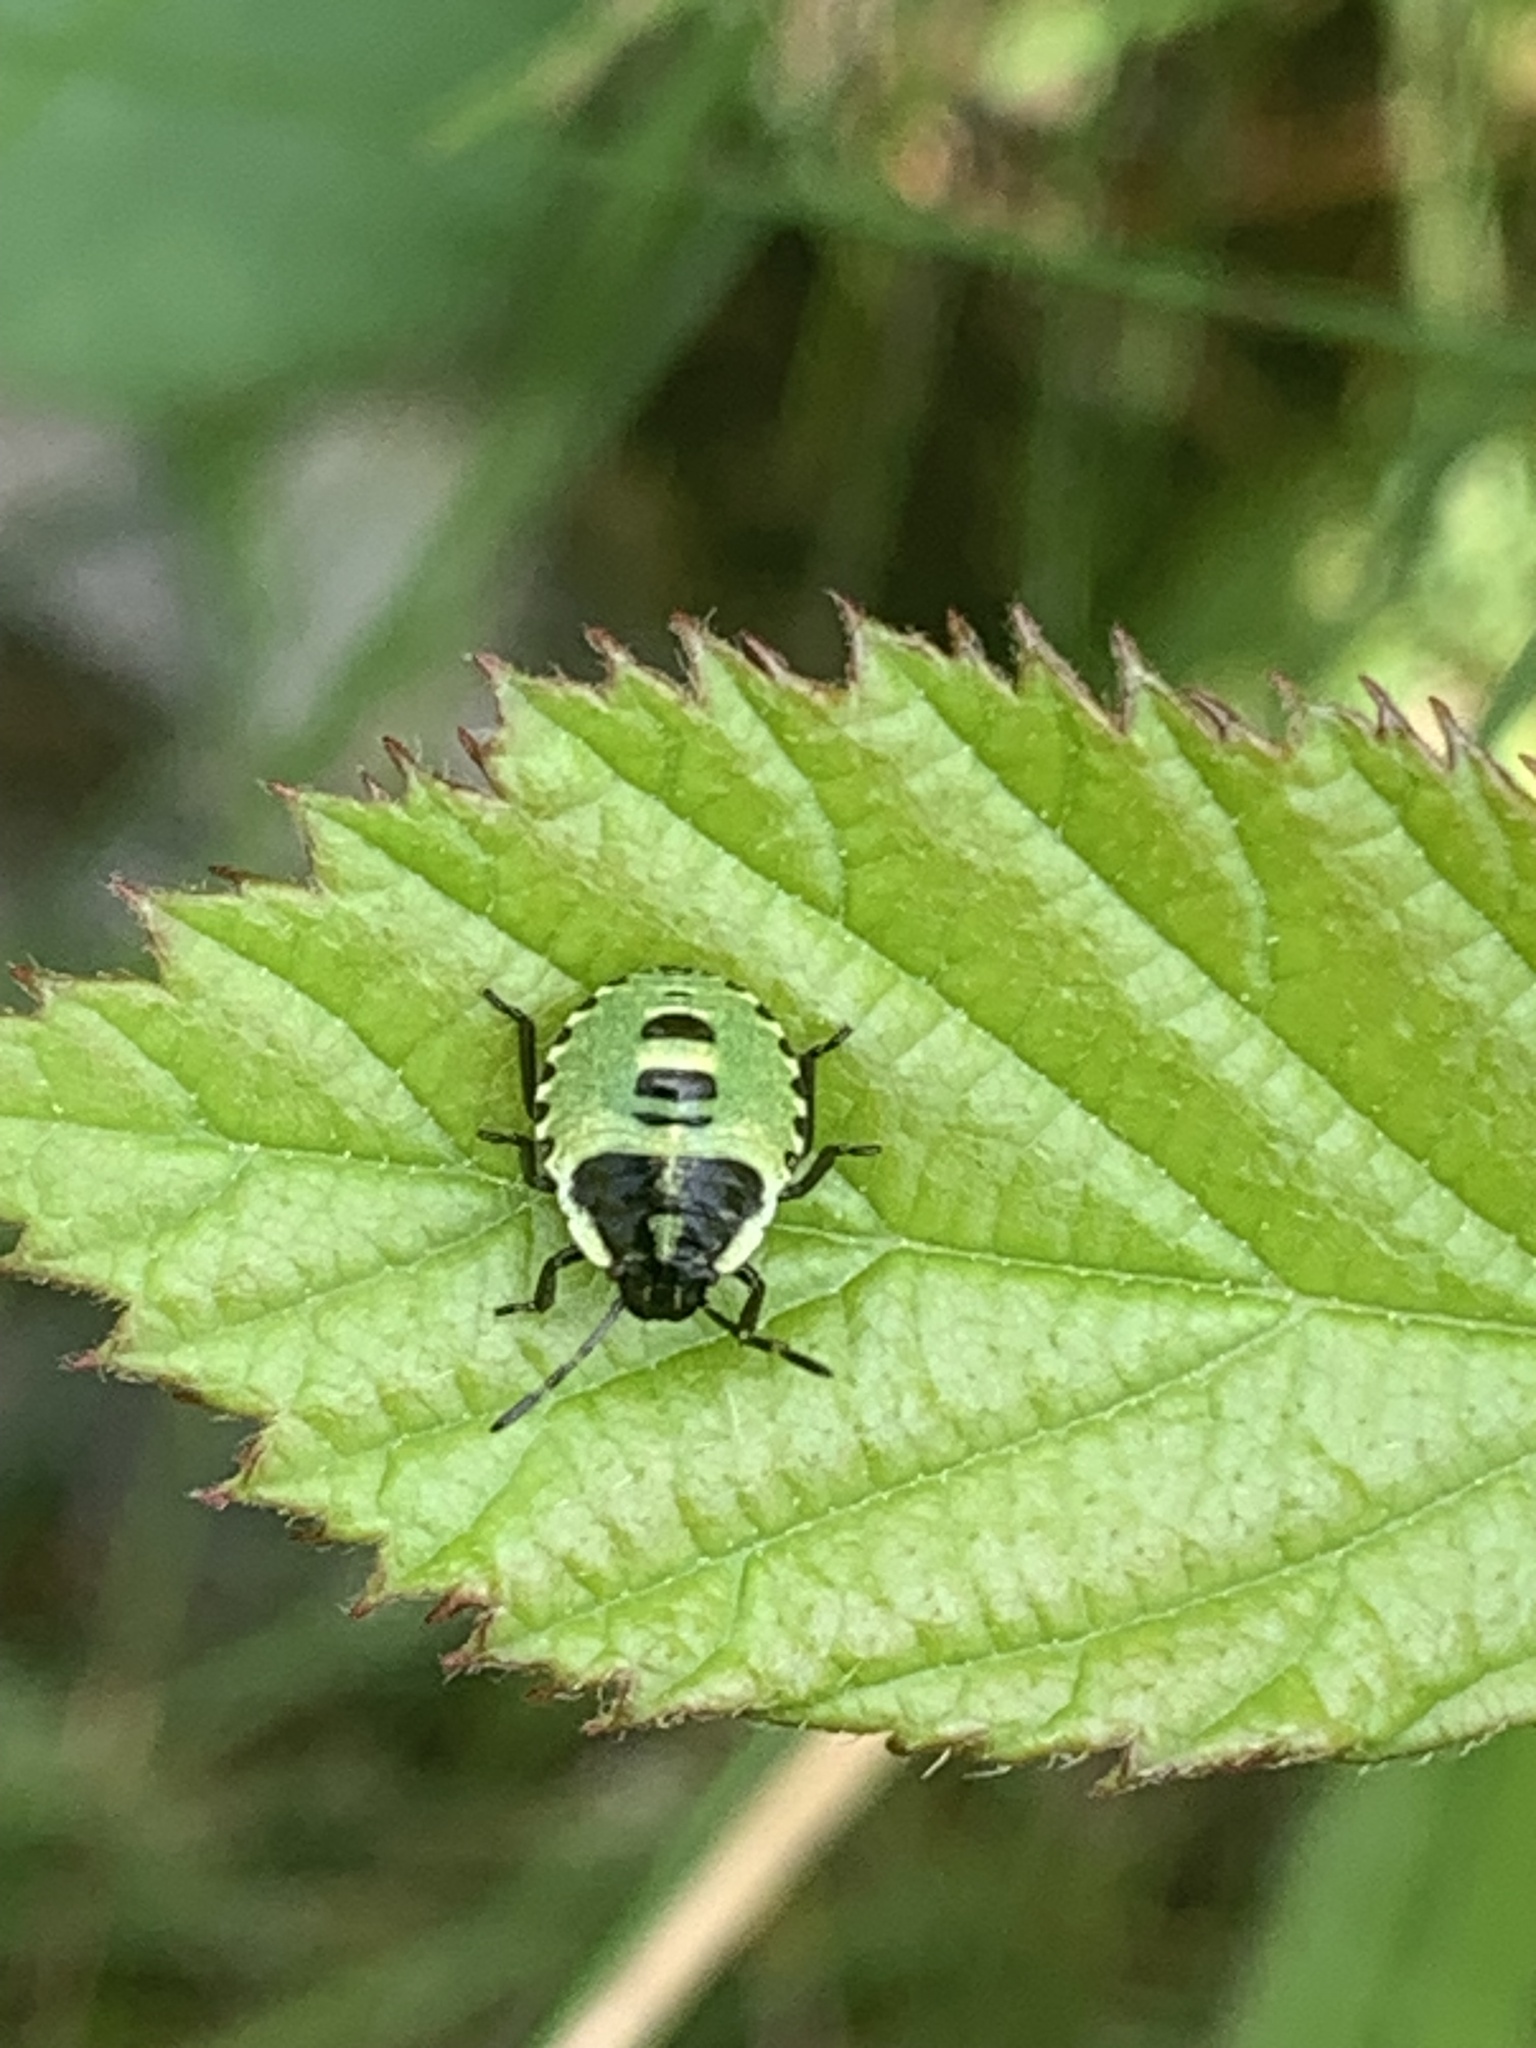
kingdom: Animalia
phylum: Arthropoda
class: Insecta
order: Hemiptera
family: Pentatomidae
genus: Palomena
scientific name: Palomena prasina
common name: Green shieldbug
